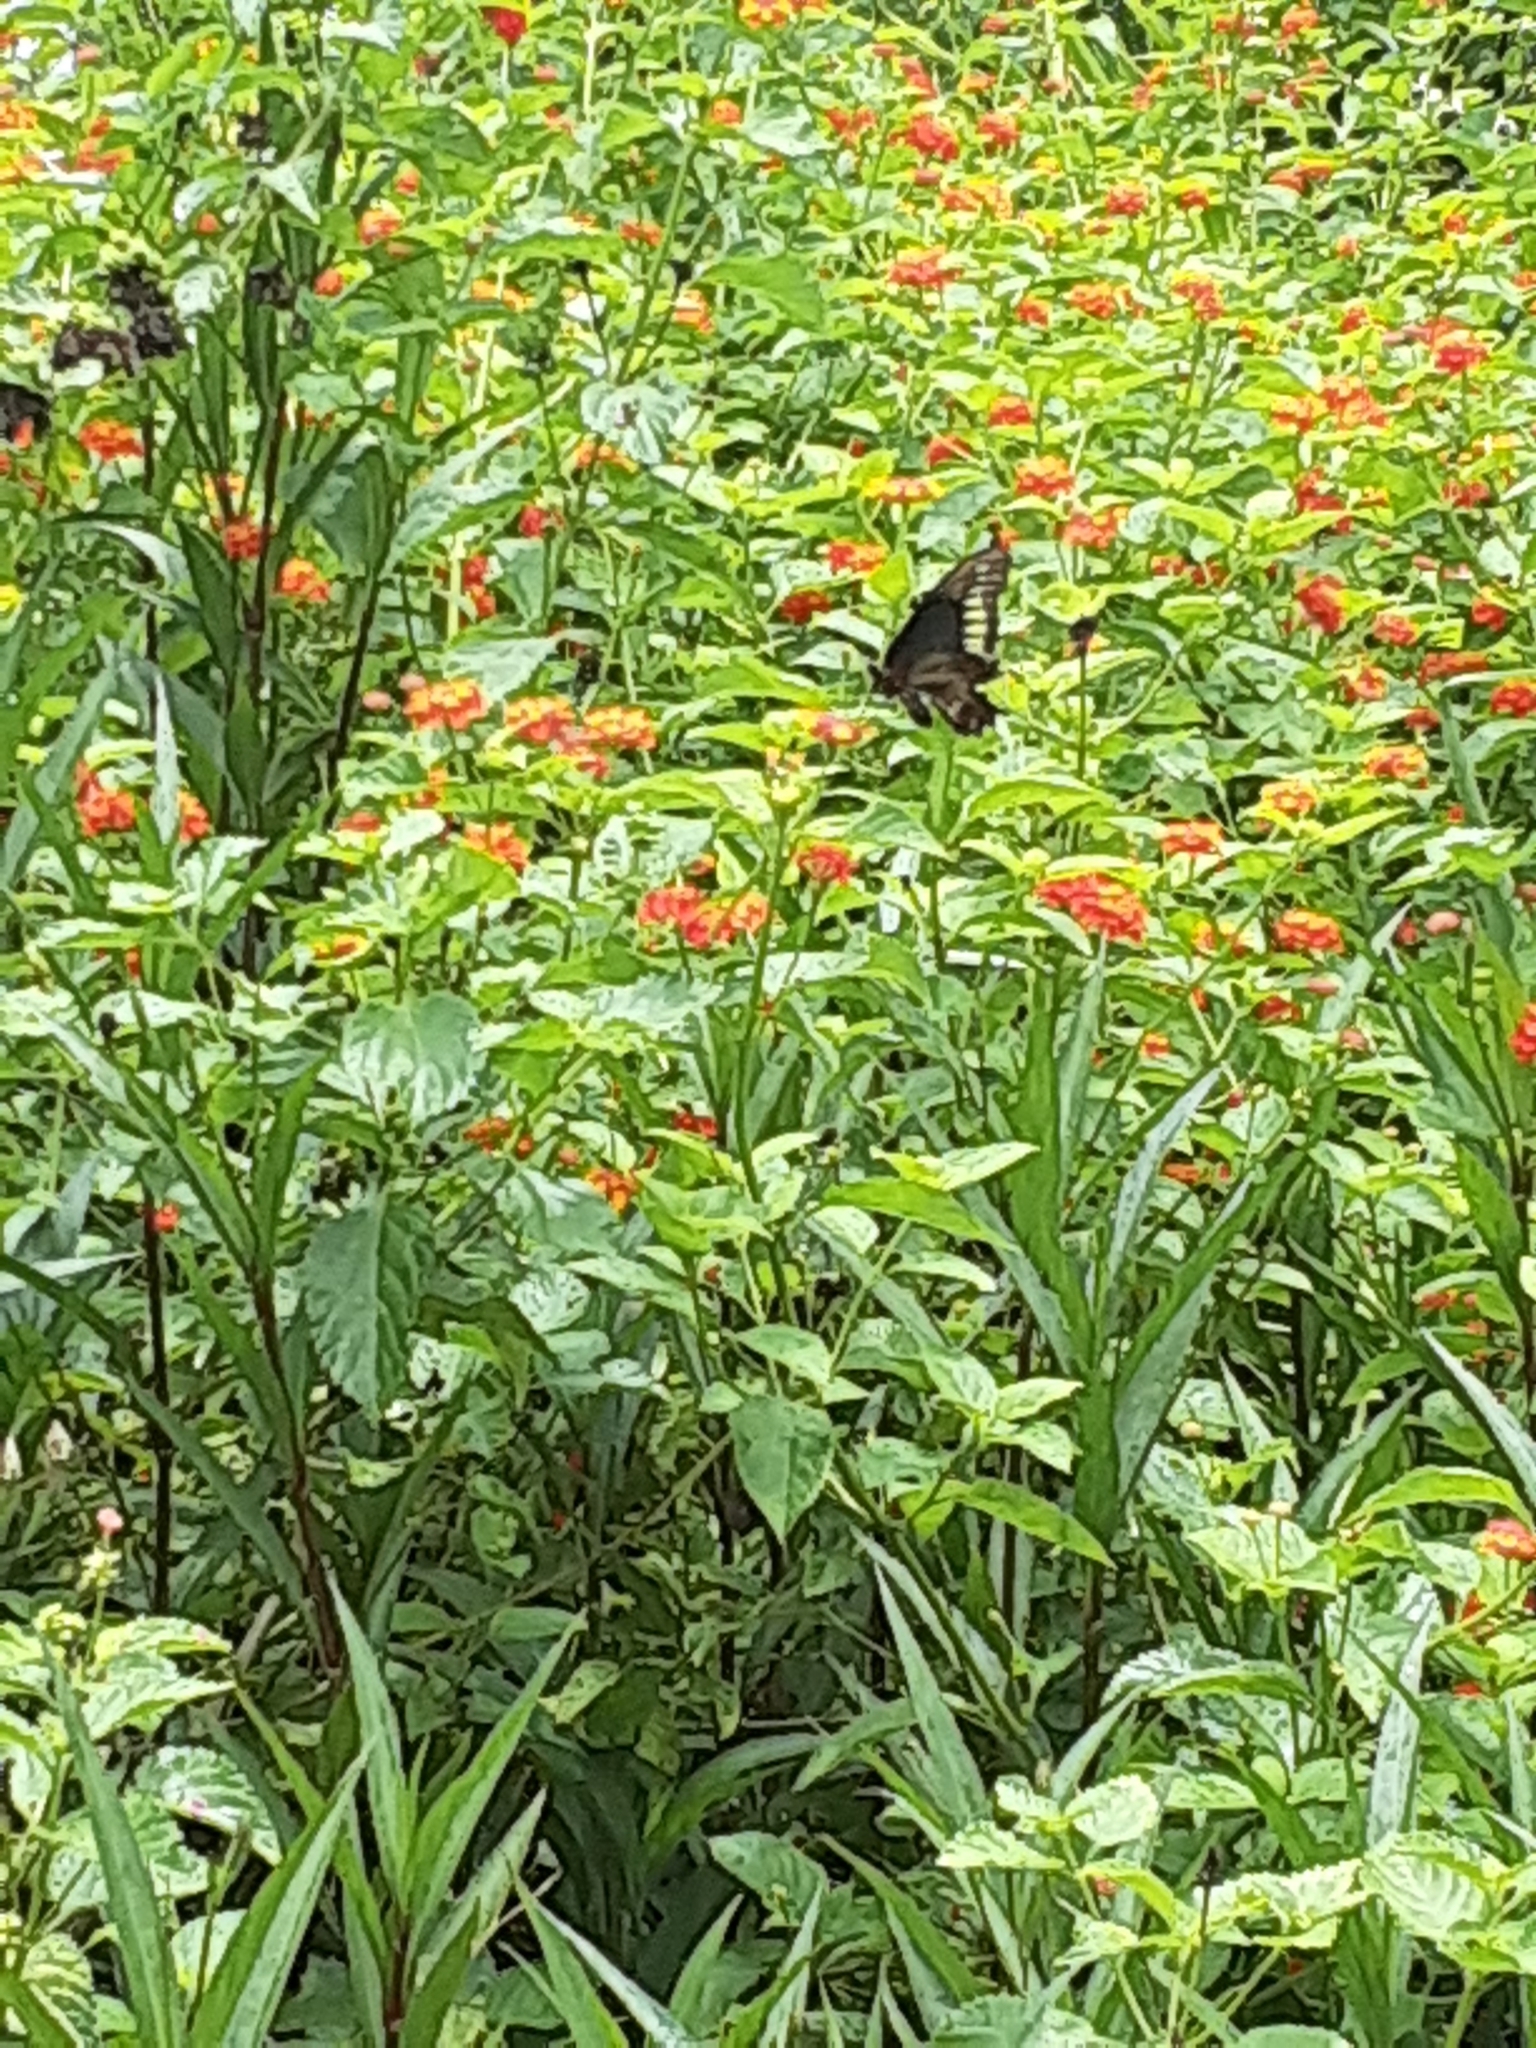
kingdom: Animalia
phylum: Arthropoda
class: Insecta
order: Lepidoptera
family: Papilionidae
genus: Battus
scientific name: Battus polydamas
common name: Polydamas swallowtail
